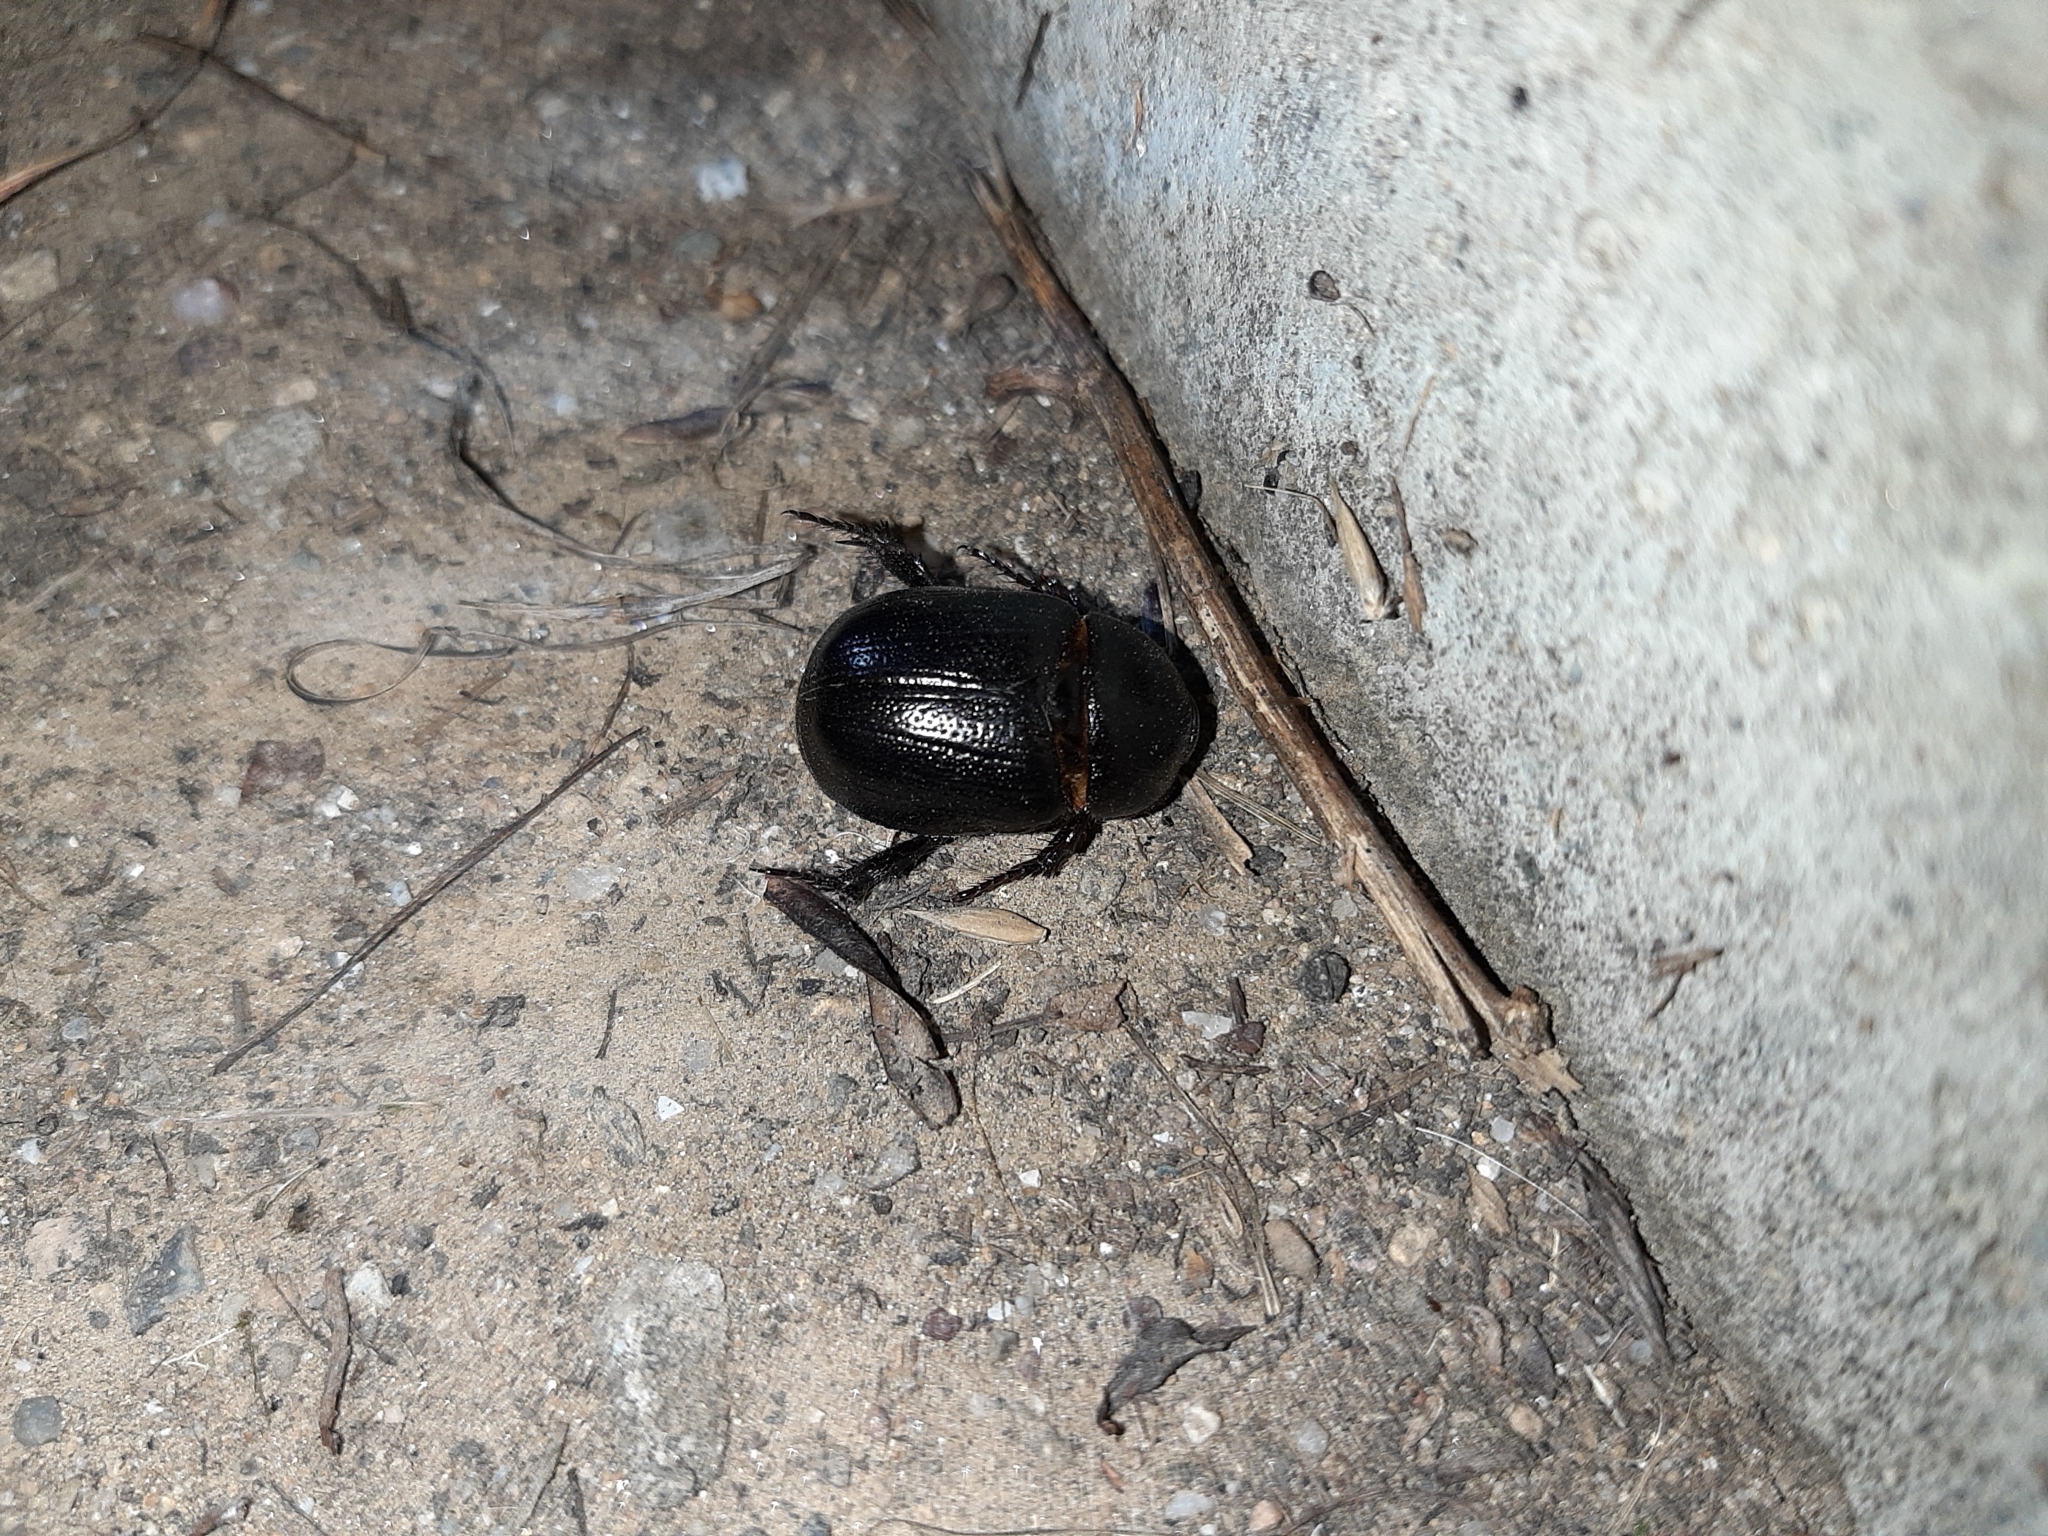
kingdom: Animalia
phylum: Arthropoda
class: Insecta
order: Coleoptera
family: Scarabaeidae
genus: Pentodon
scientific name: Pentodon bidens
